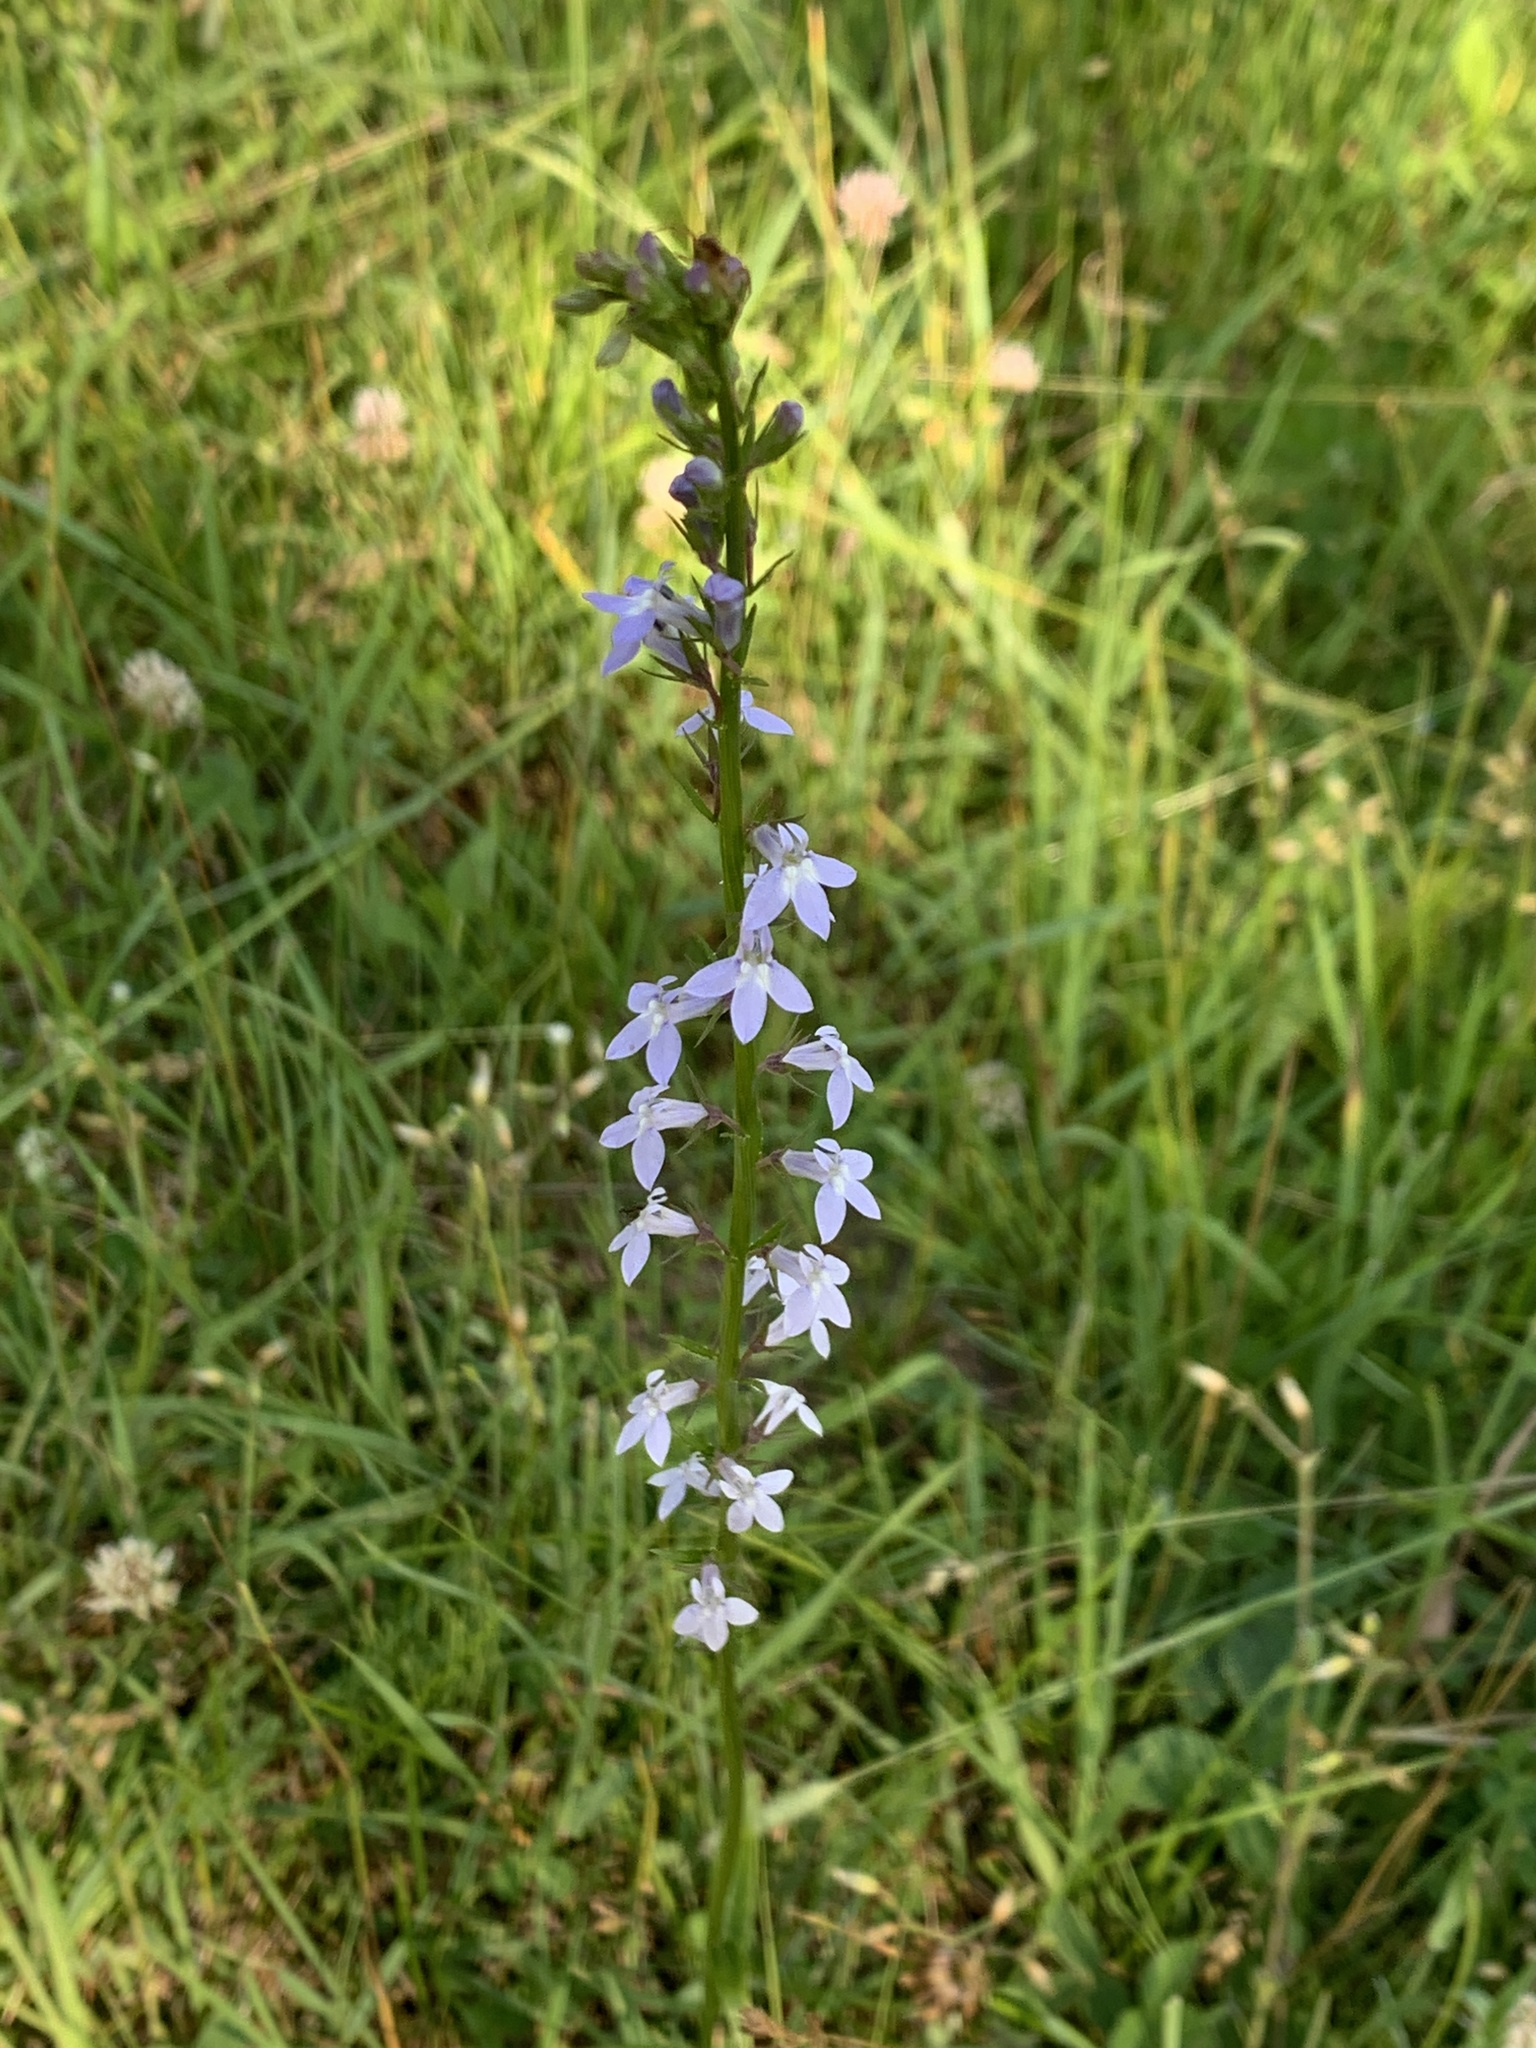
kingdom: Plantae
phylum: Tracheophyta
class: Magnoliopsida
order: Asterales
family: Campanulaceae
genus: Lobelia
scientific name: Lobelia spicata
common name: Pale-spike lobelia
